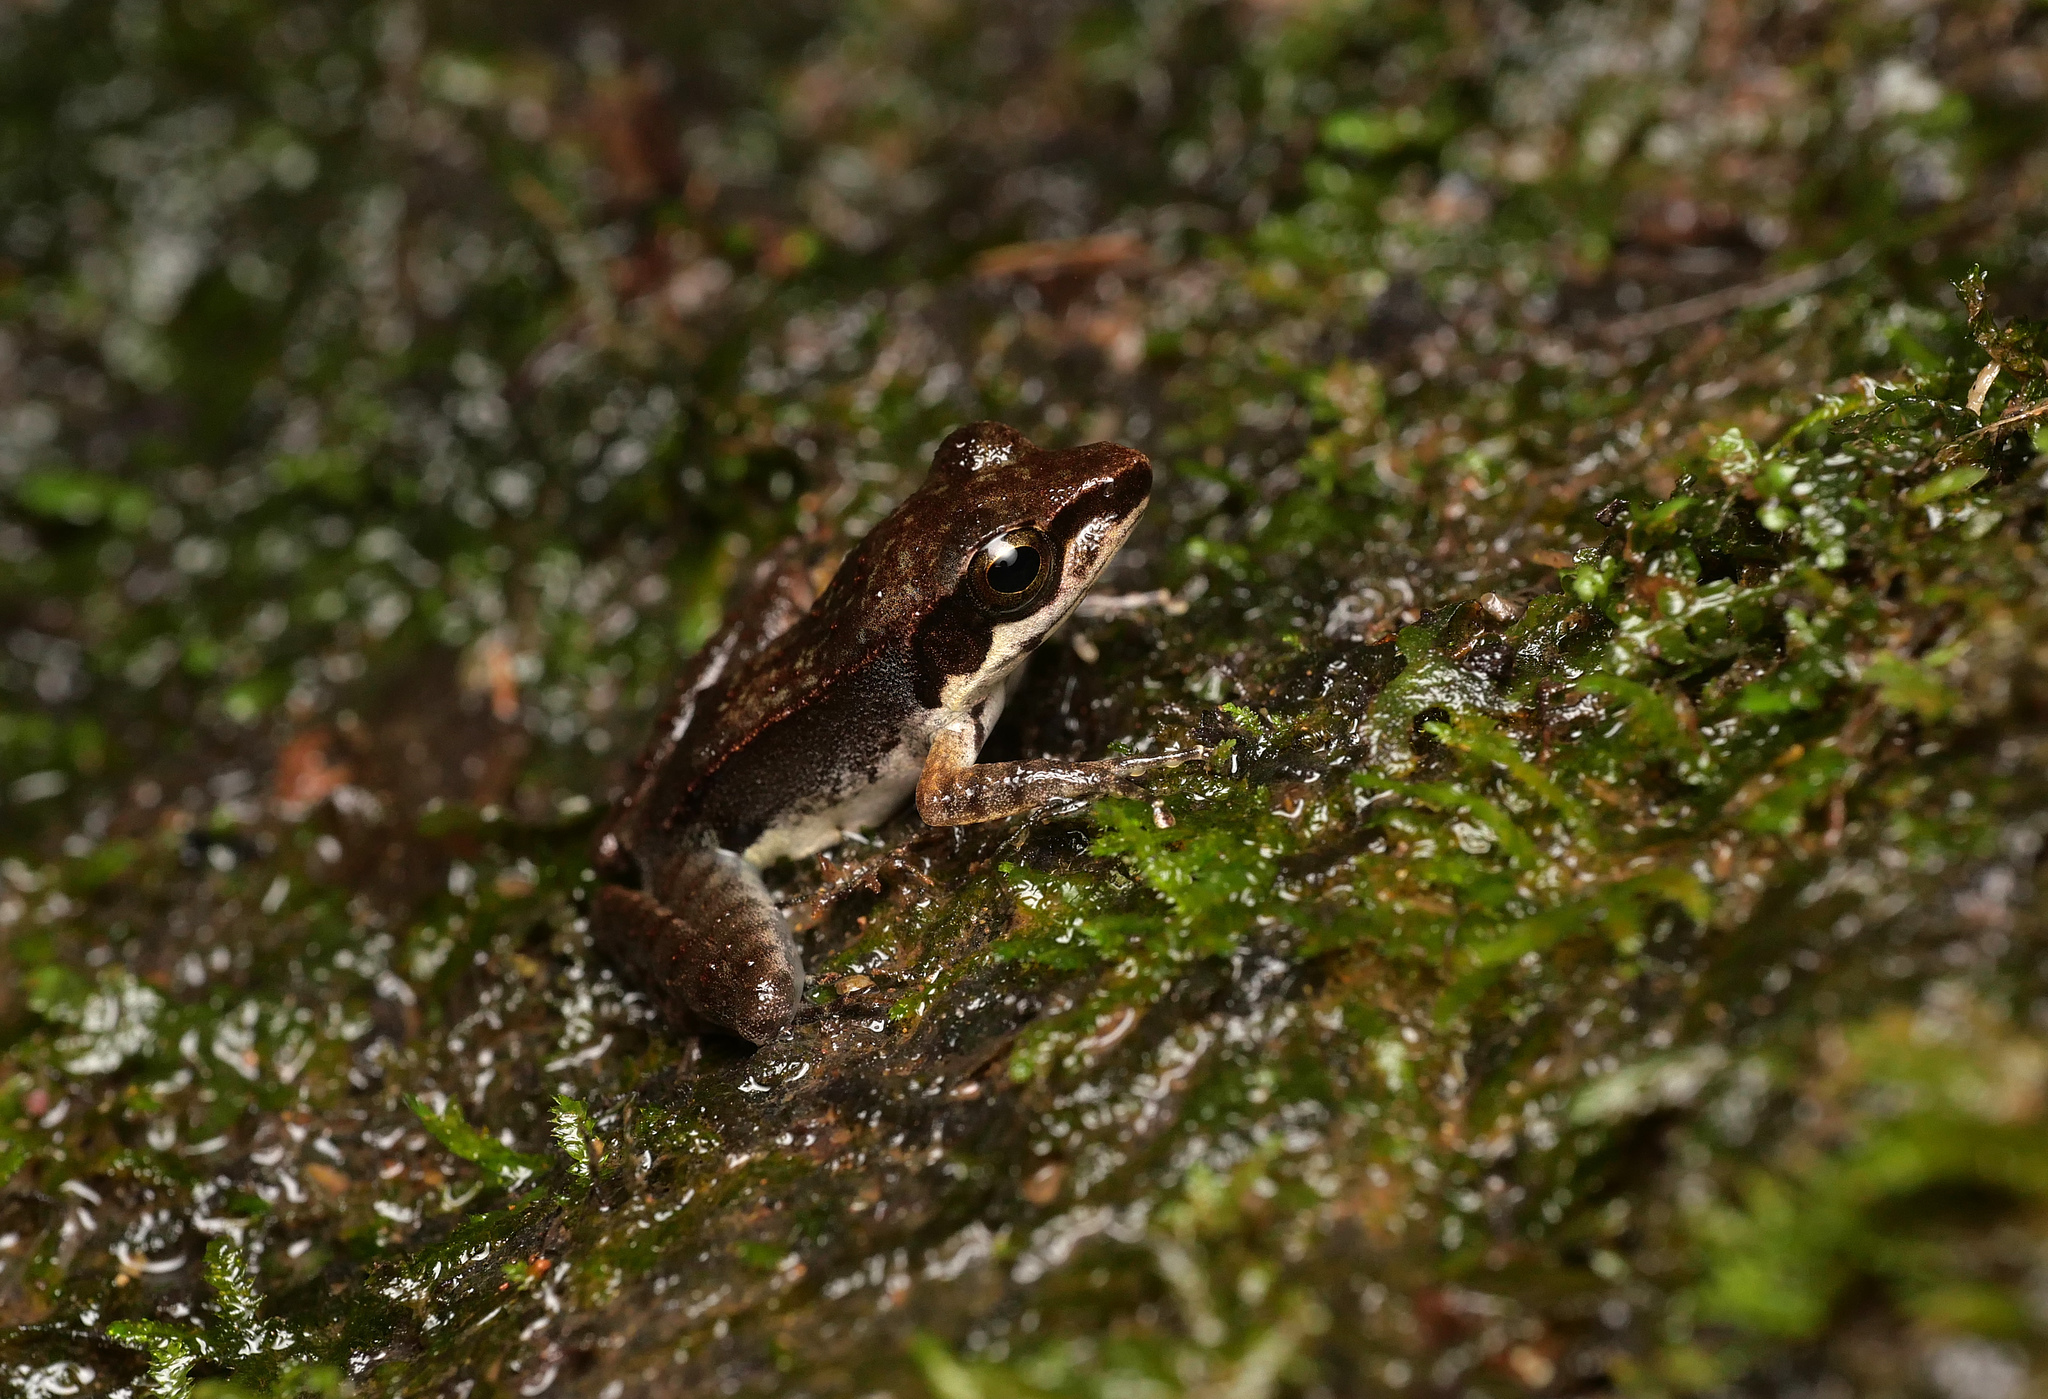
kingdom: Animalia
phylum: Chordata
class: Amphibia
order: Anura
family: Ranidae
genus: Papurana
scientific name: Papurana papua
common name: Papua frog
